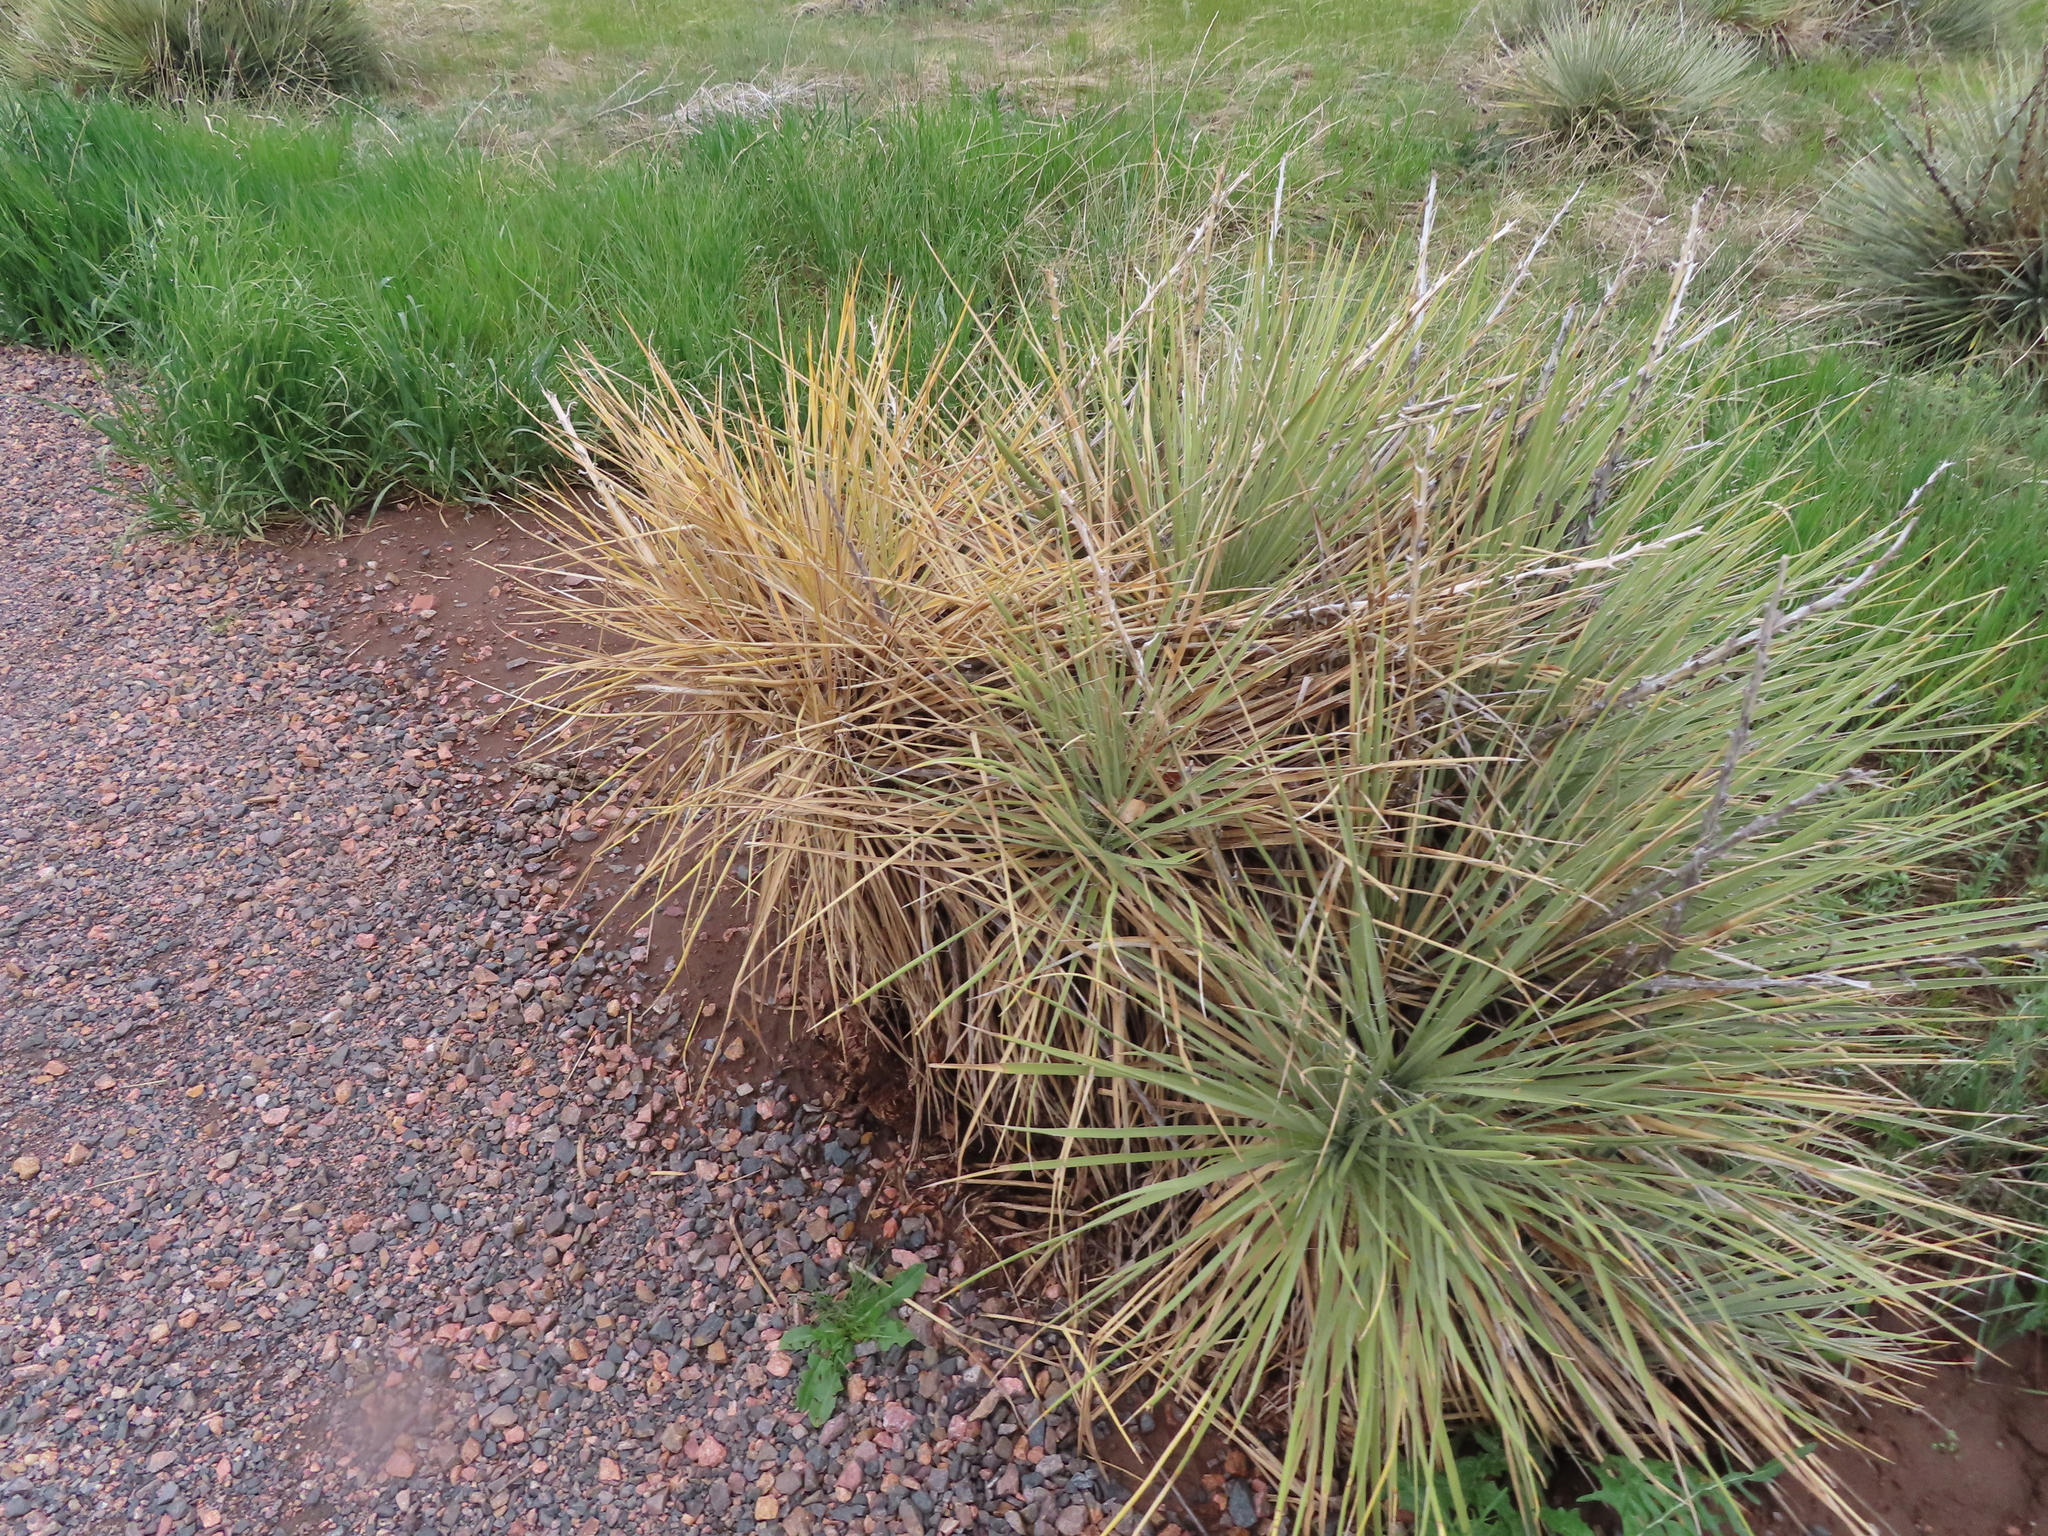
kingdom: Plantae
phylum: Tracheophyta
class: Liliopsida
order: Asparagales
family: Asparagaceae
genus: Yucca
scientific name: Yucca glauca
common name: Great plains yucca
